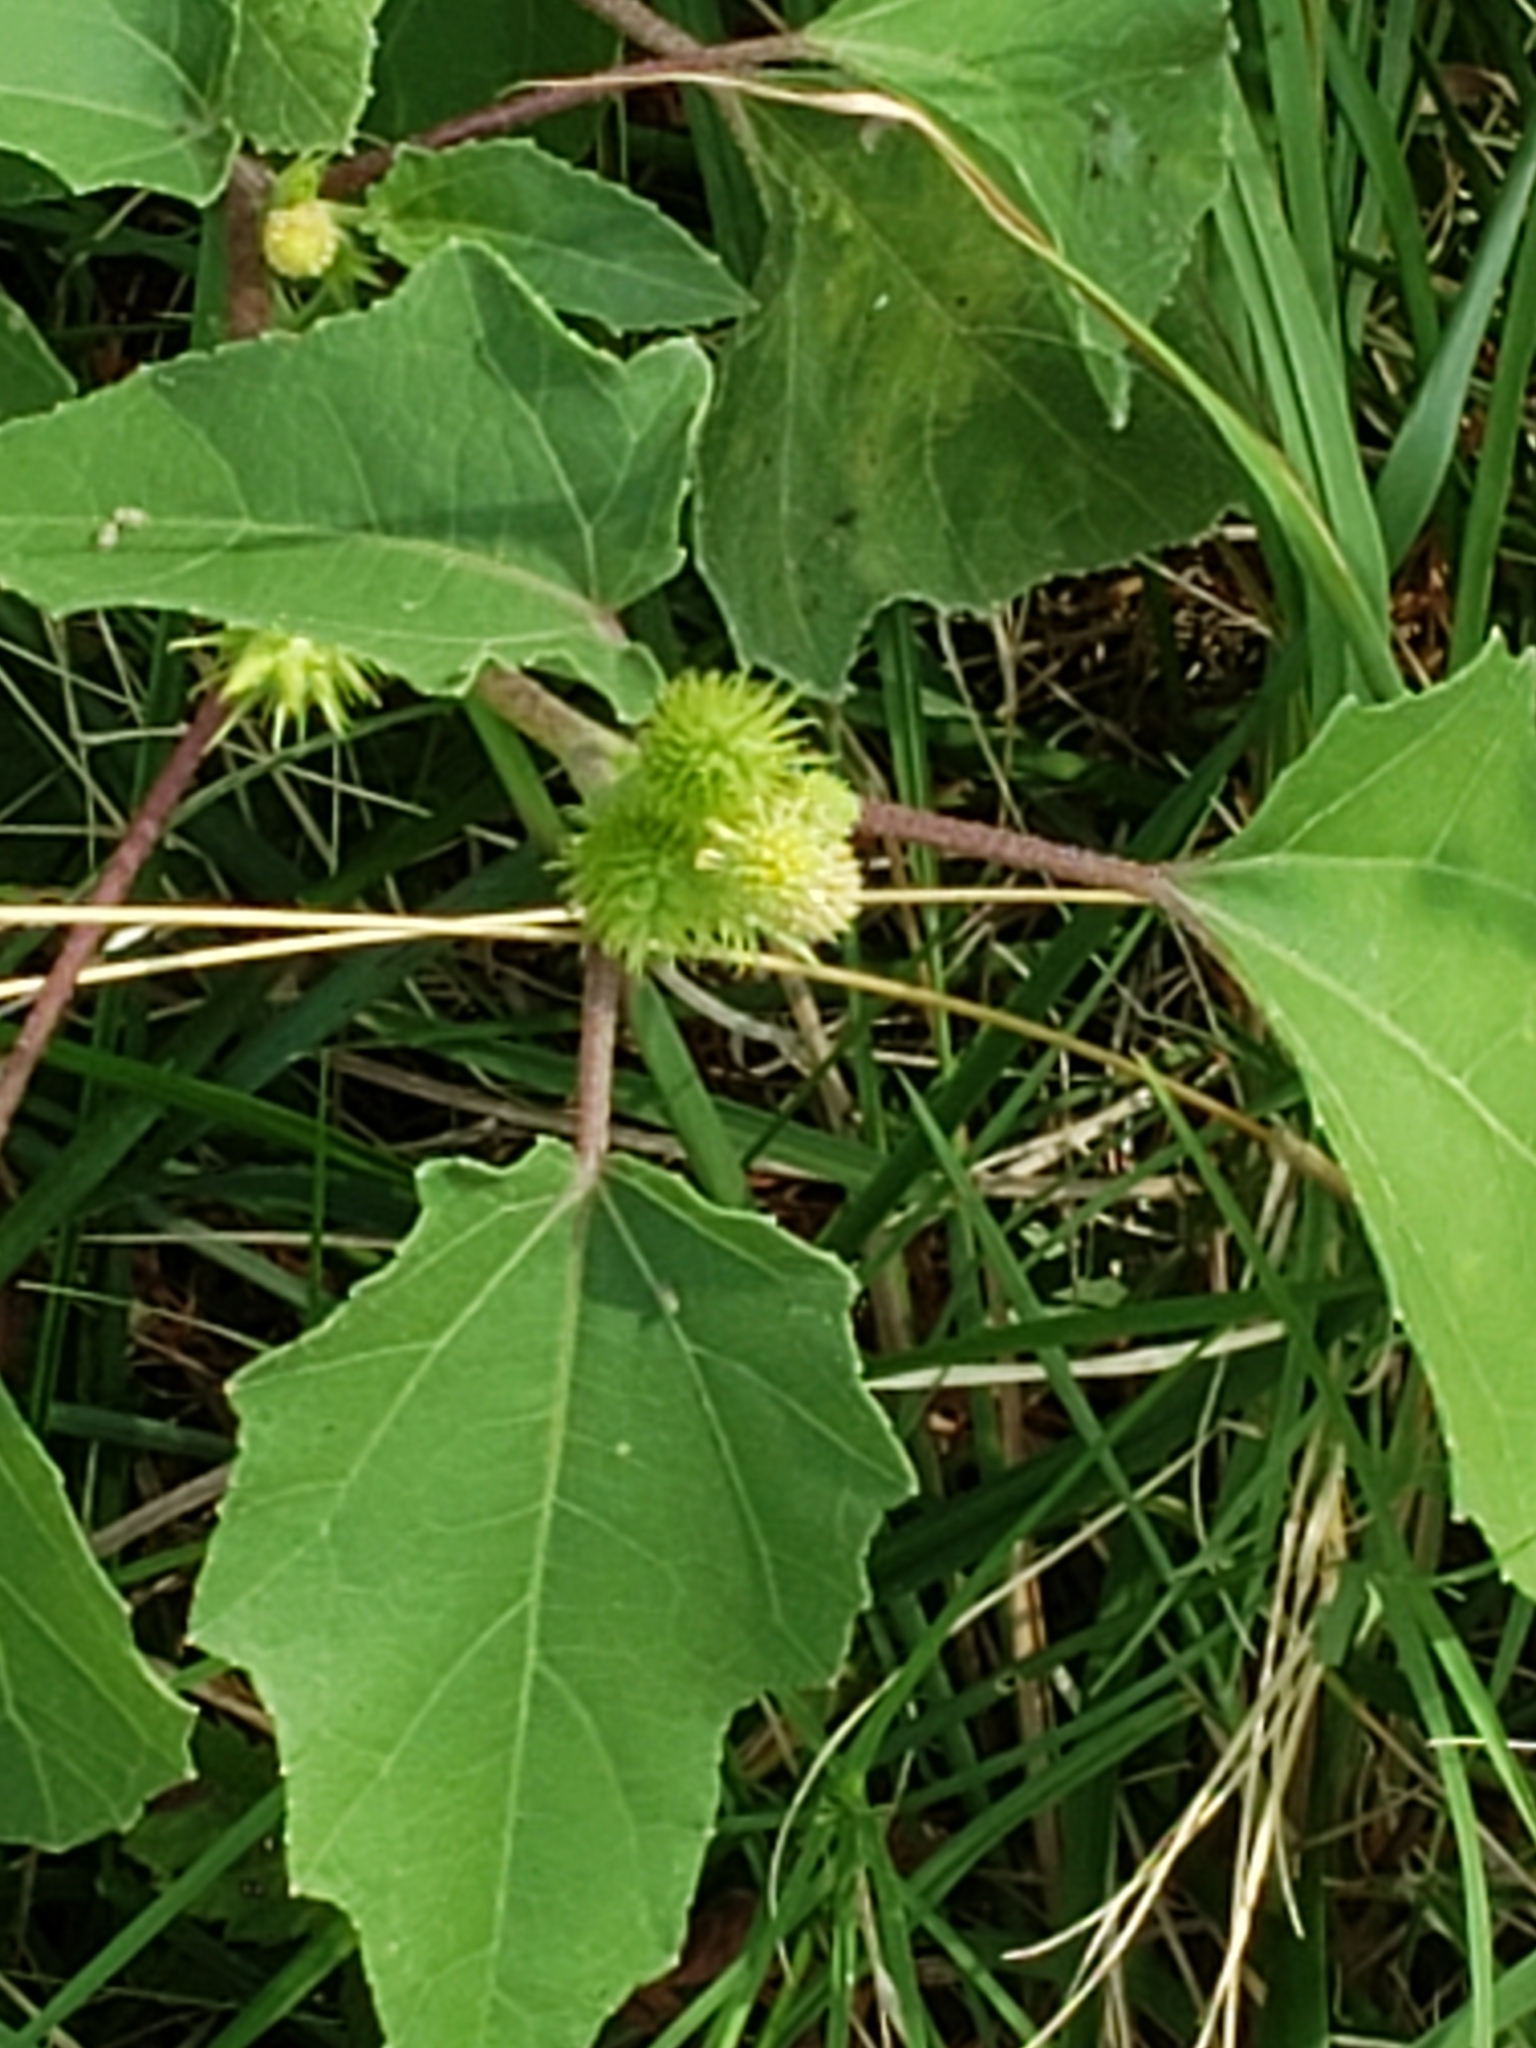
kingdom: Plantae
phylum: Tracheophyta
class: Magnoliopsida
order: Asterales
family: Asteraceae
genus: Xanthium
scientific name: Xanthium strumarium
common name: Rough cocklebur
